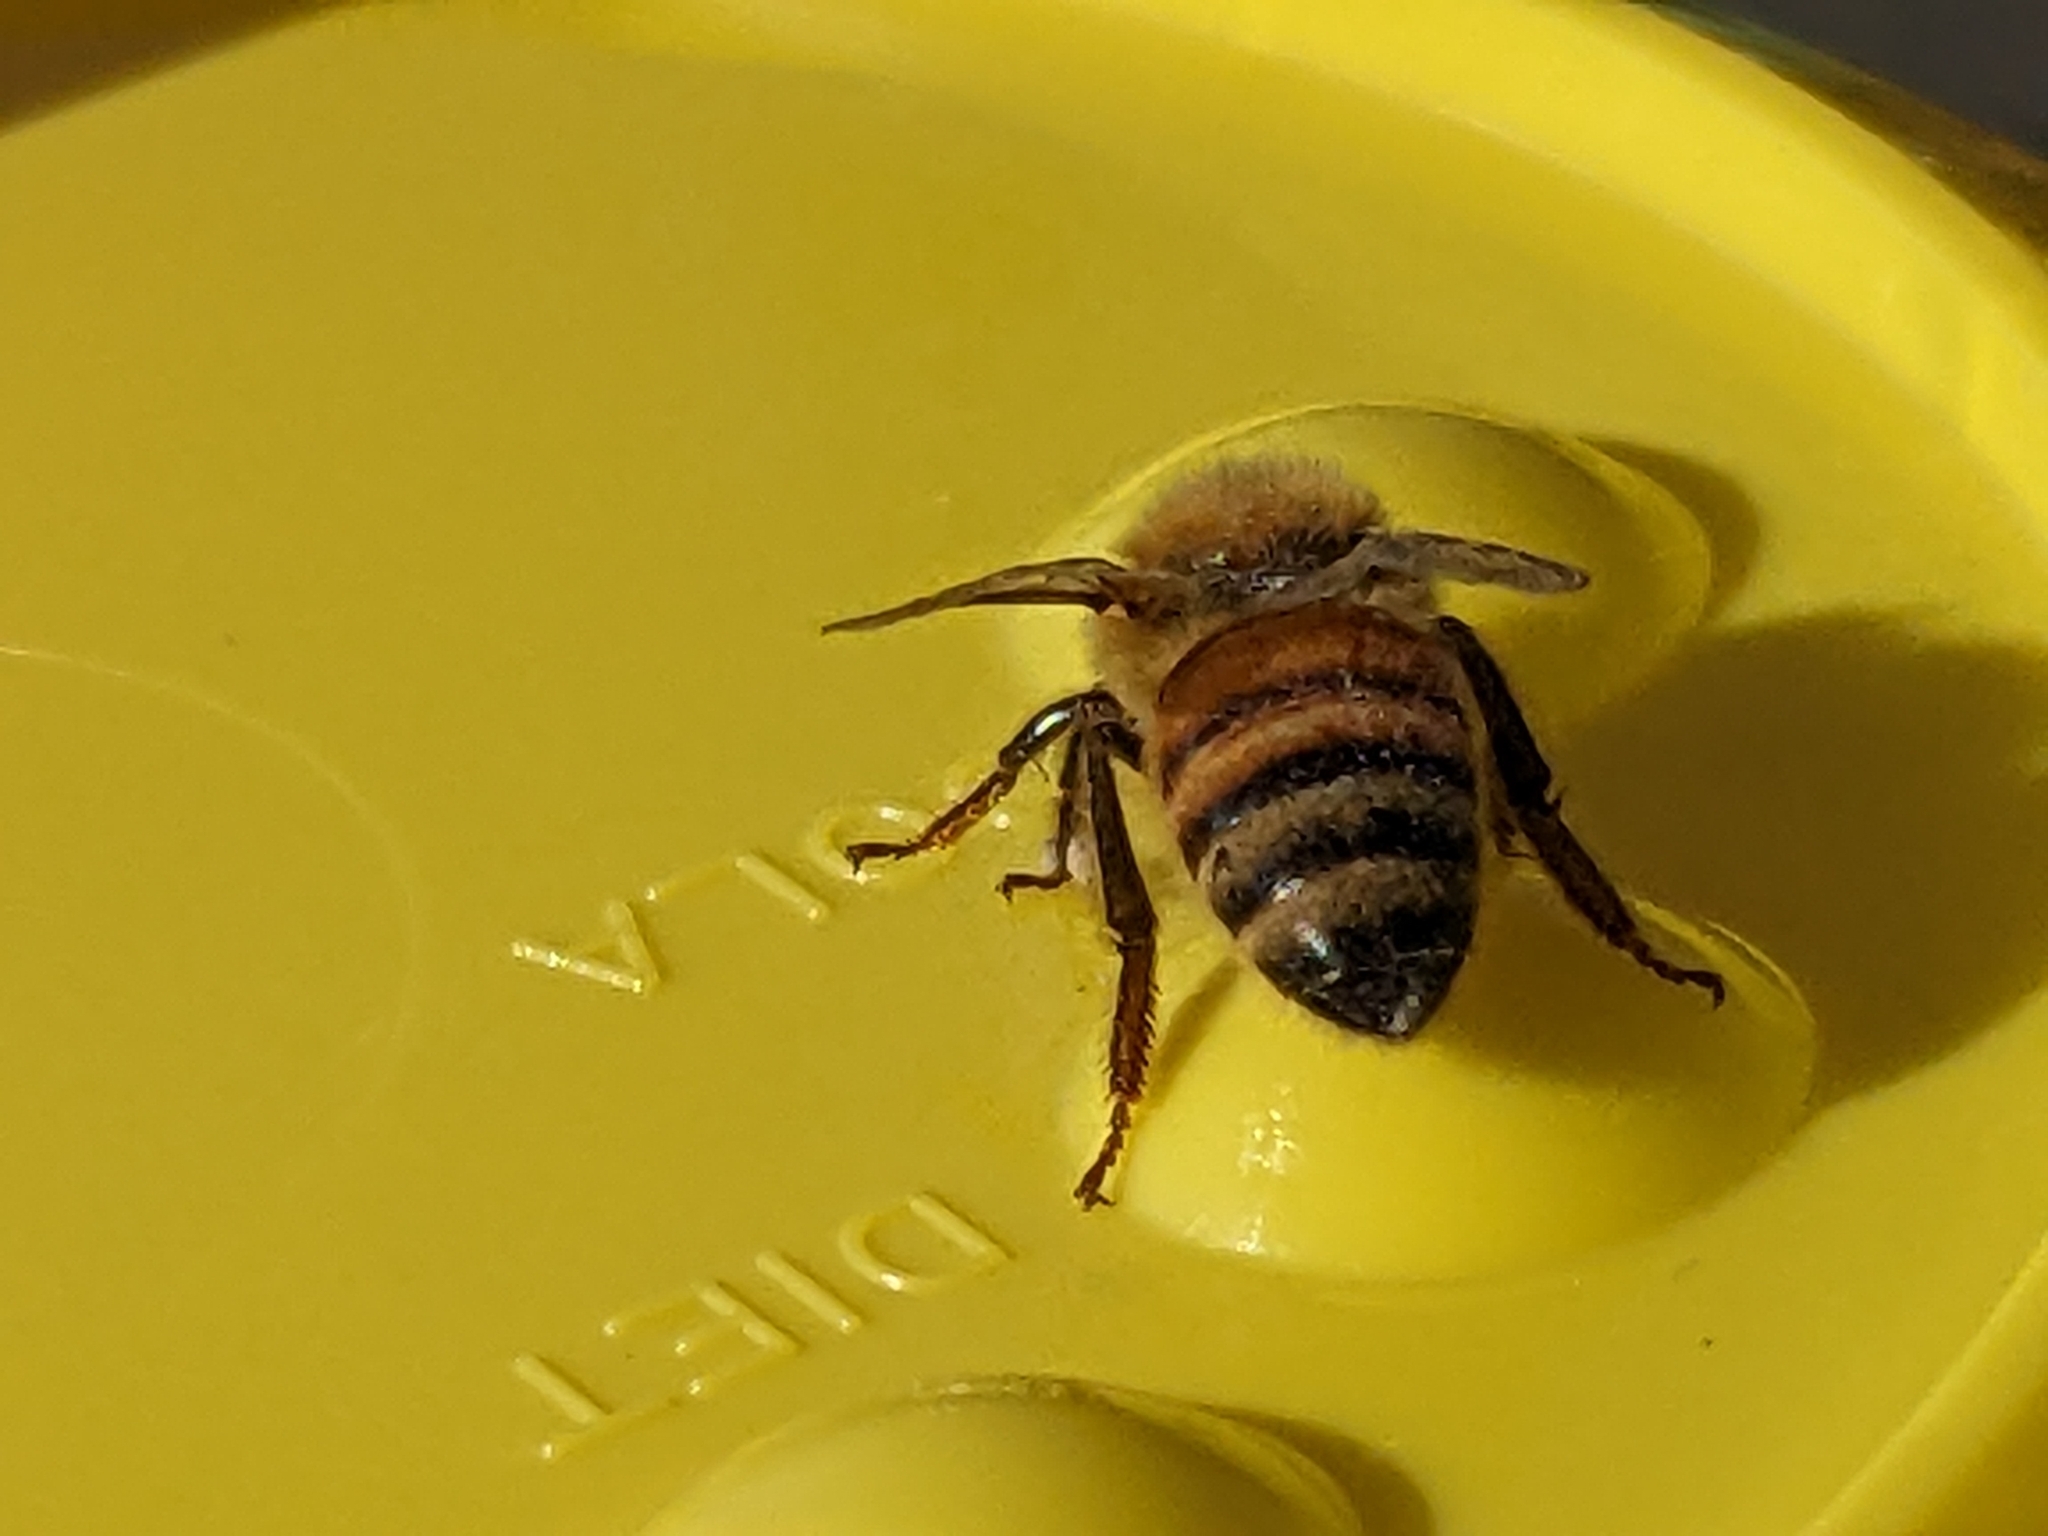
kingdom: Animalia
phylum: Arthropoda
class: Insecta
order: Hymenoptera
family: Apidae
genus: Apis
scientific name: Apis mellifera
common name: Honey bee
